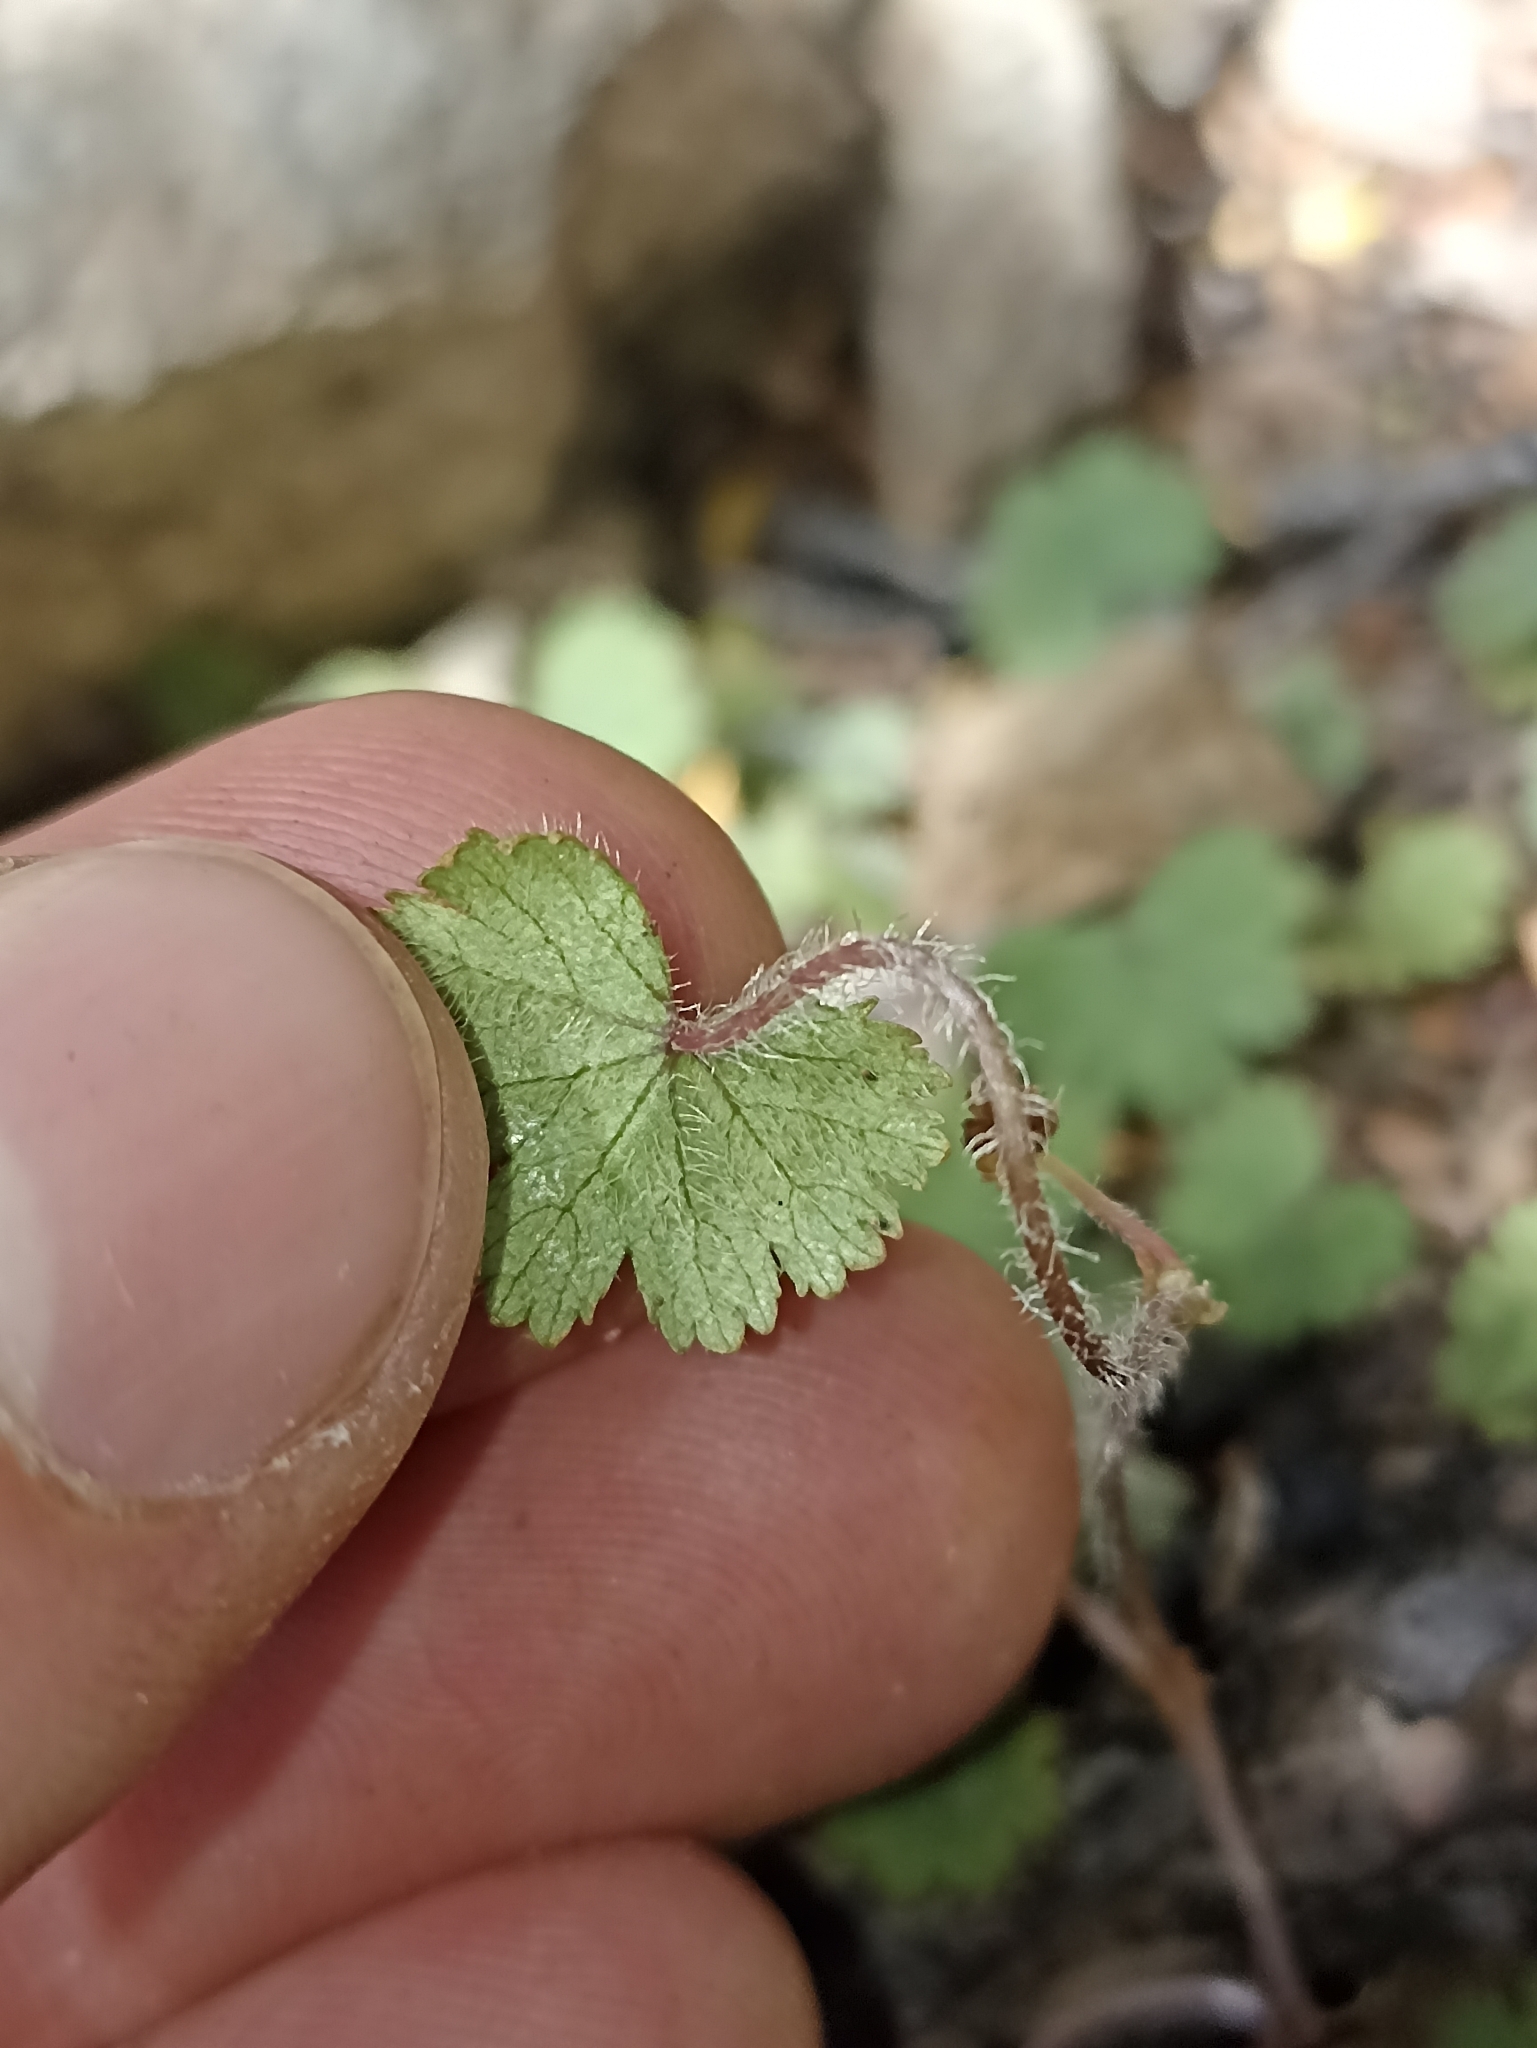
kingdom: Plantae
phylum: Tracheophyta
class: Magnoliopsida
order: Apiales
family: Araliaceae
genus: Hydrocotyle
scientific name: Hydrocotyle moschata
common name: Hairy pennywort
